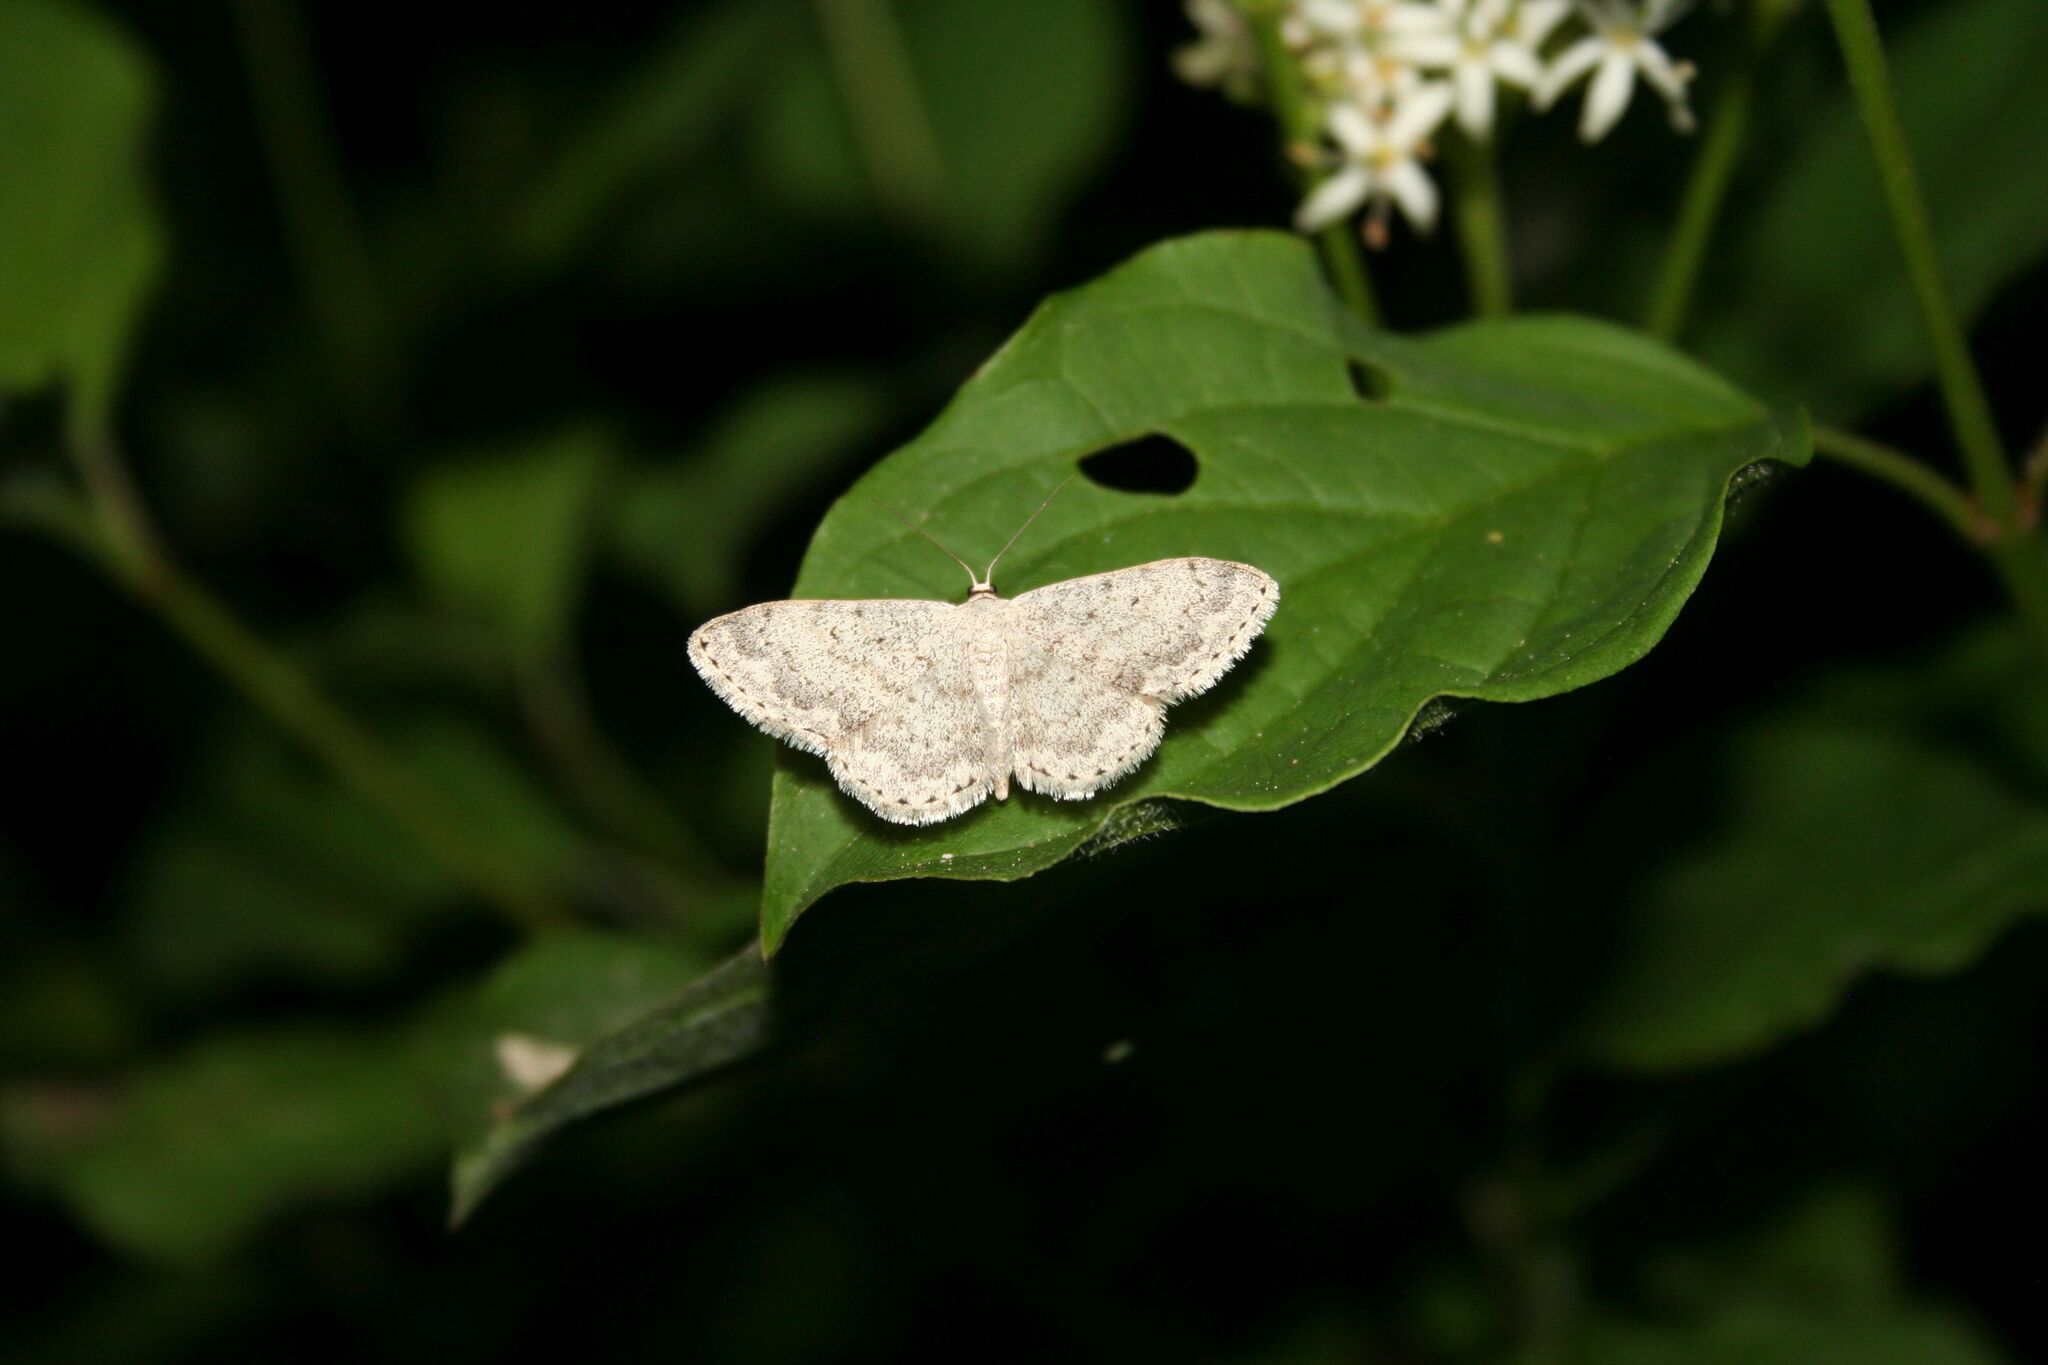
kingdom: Animalia
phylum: Arthropoda
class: Insecta
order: Lepidoptera
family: Geometridae
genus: Scopula
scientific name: Scopula marginepunctata
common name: Mullein wave
